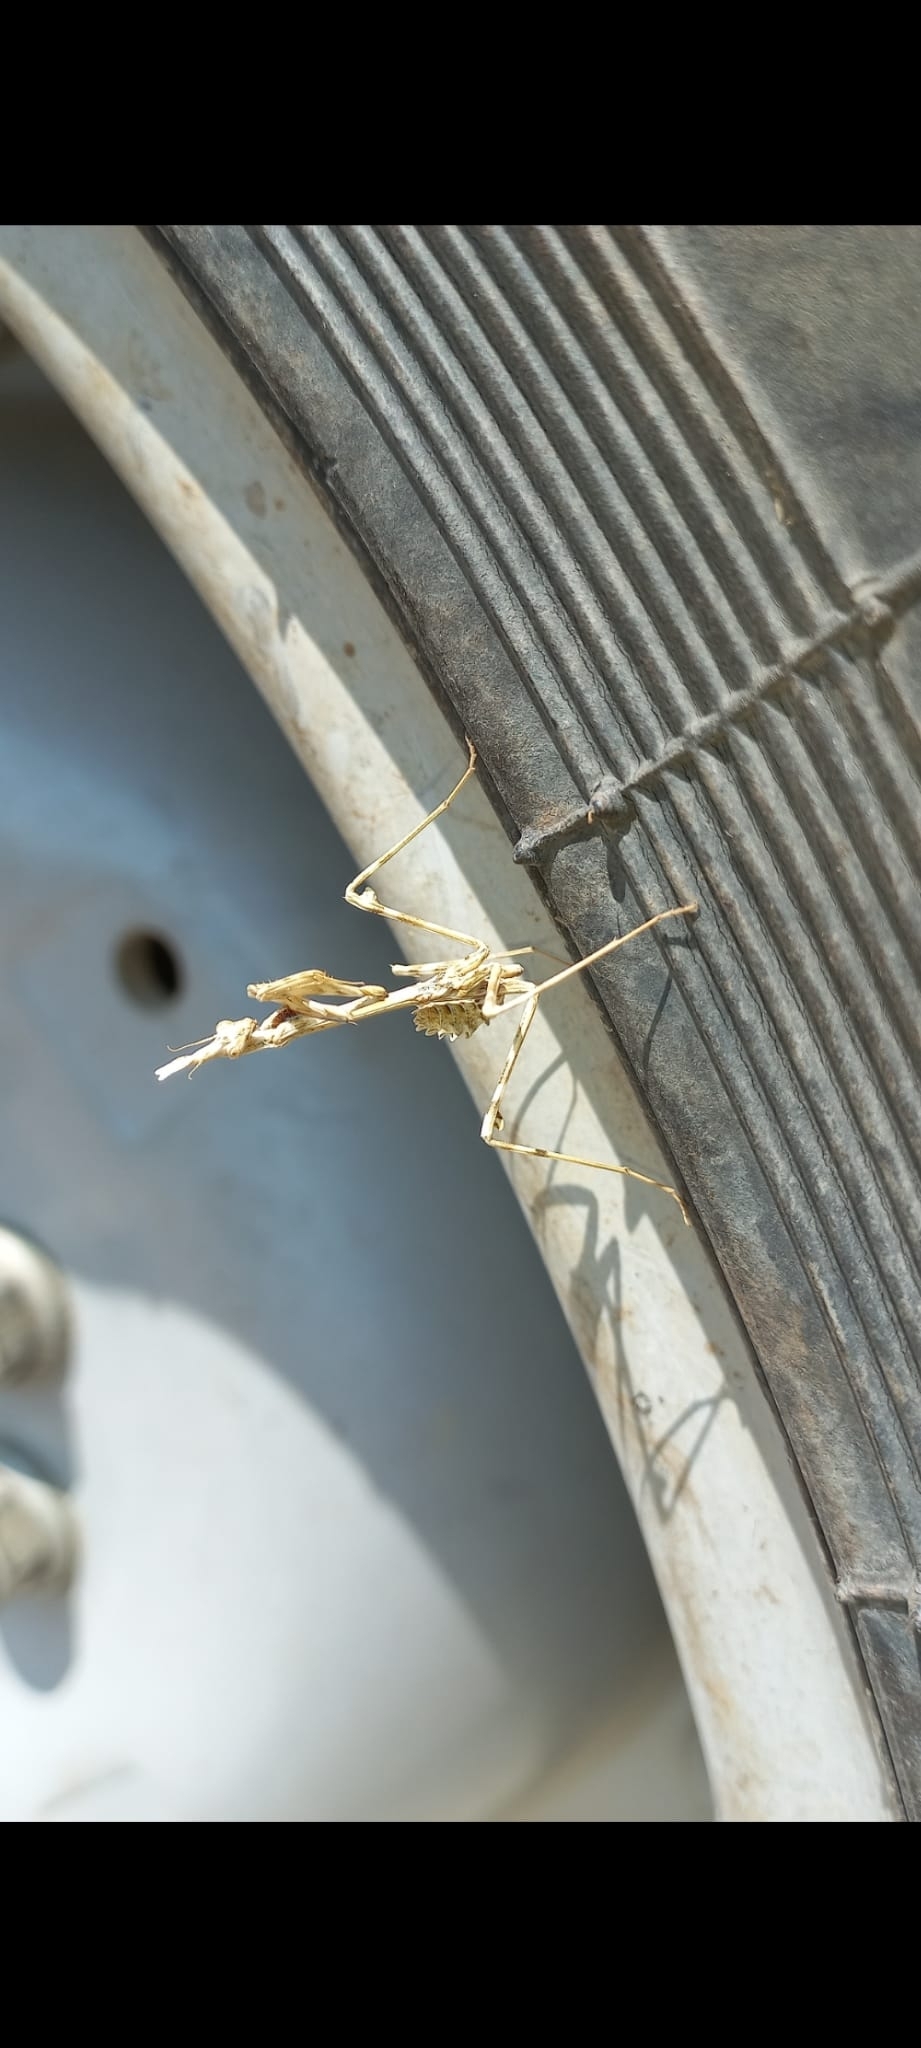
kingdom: Animalia
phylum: Arthropoda
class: Insecta
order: Mantodea
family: Empusidae
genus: Empusa
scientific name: Empusa pennata
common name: Conehead mantis
